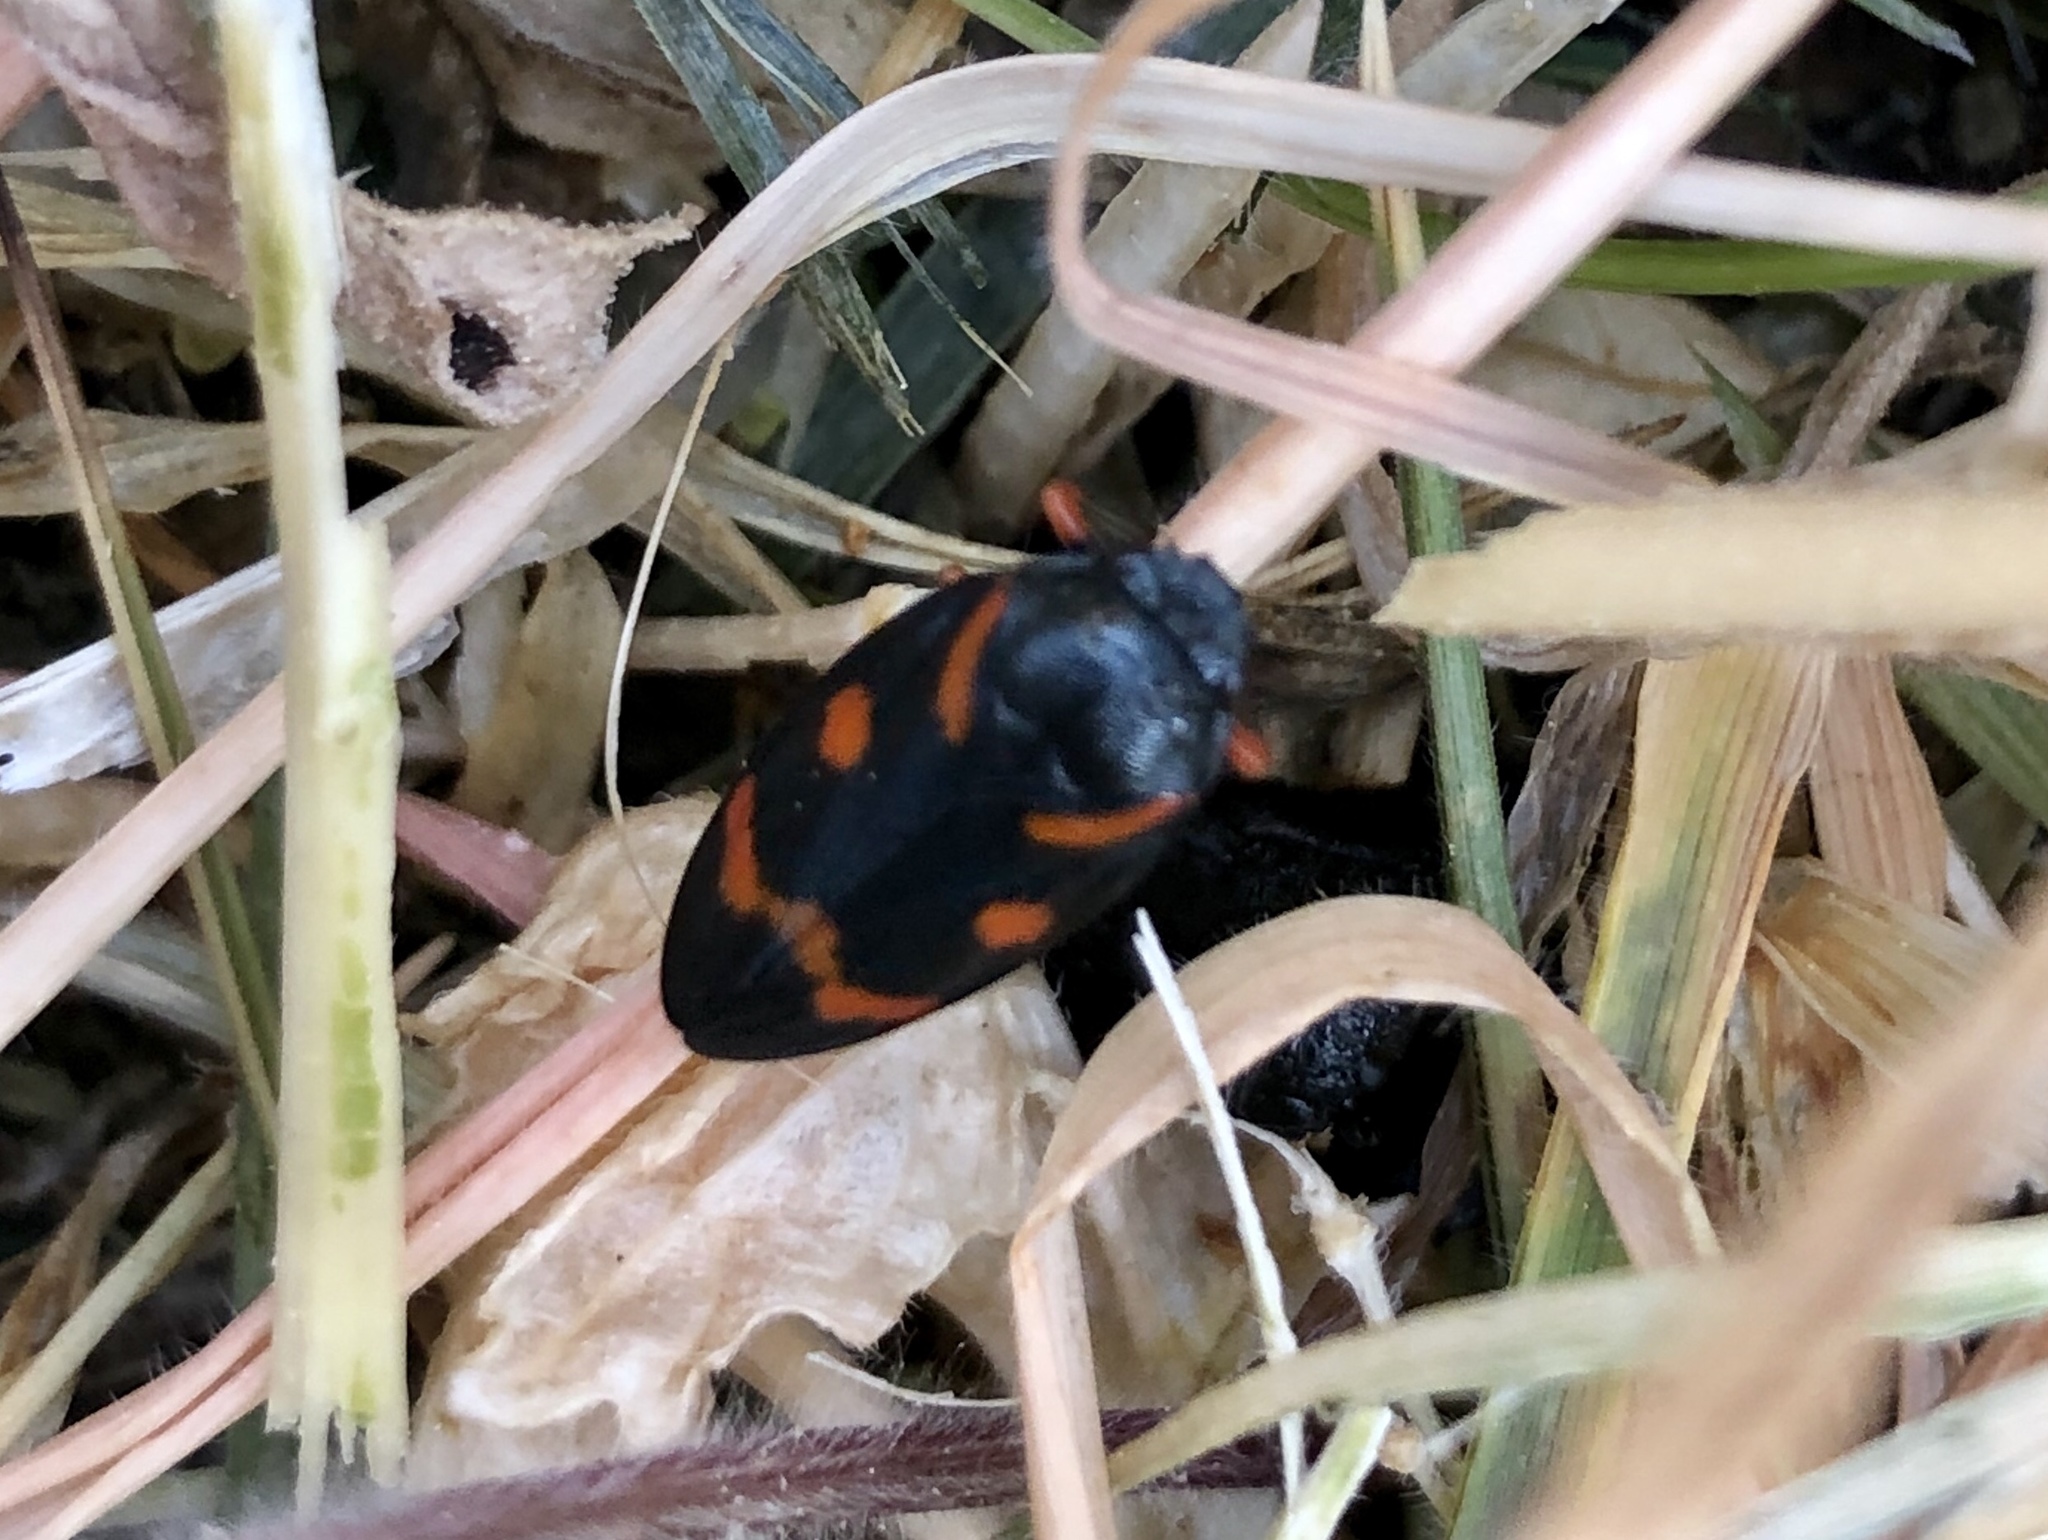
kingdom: Animalia
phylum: Arthropoda
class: Insecta
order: Hemiptera
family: Cercopidae
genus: Cercopis
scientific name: Cercopis intermedia
